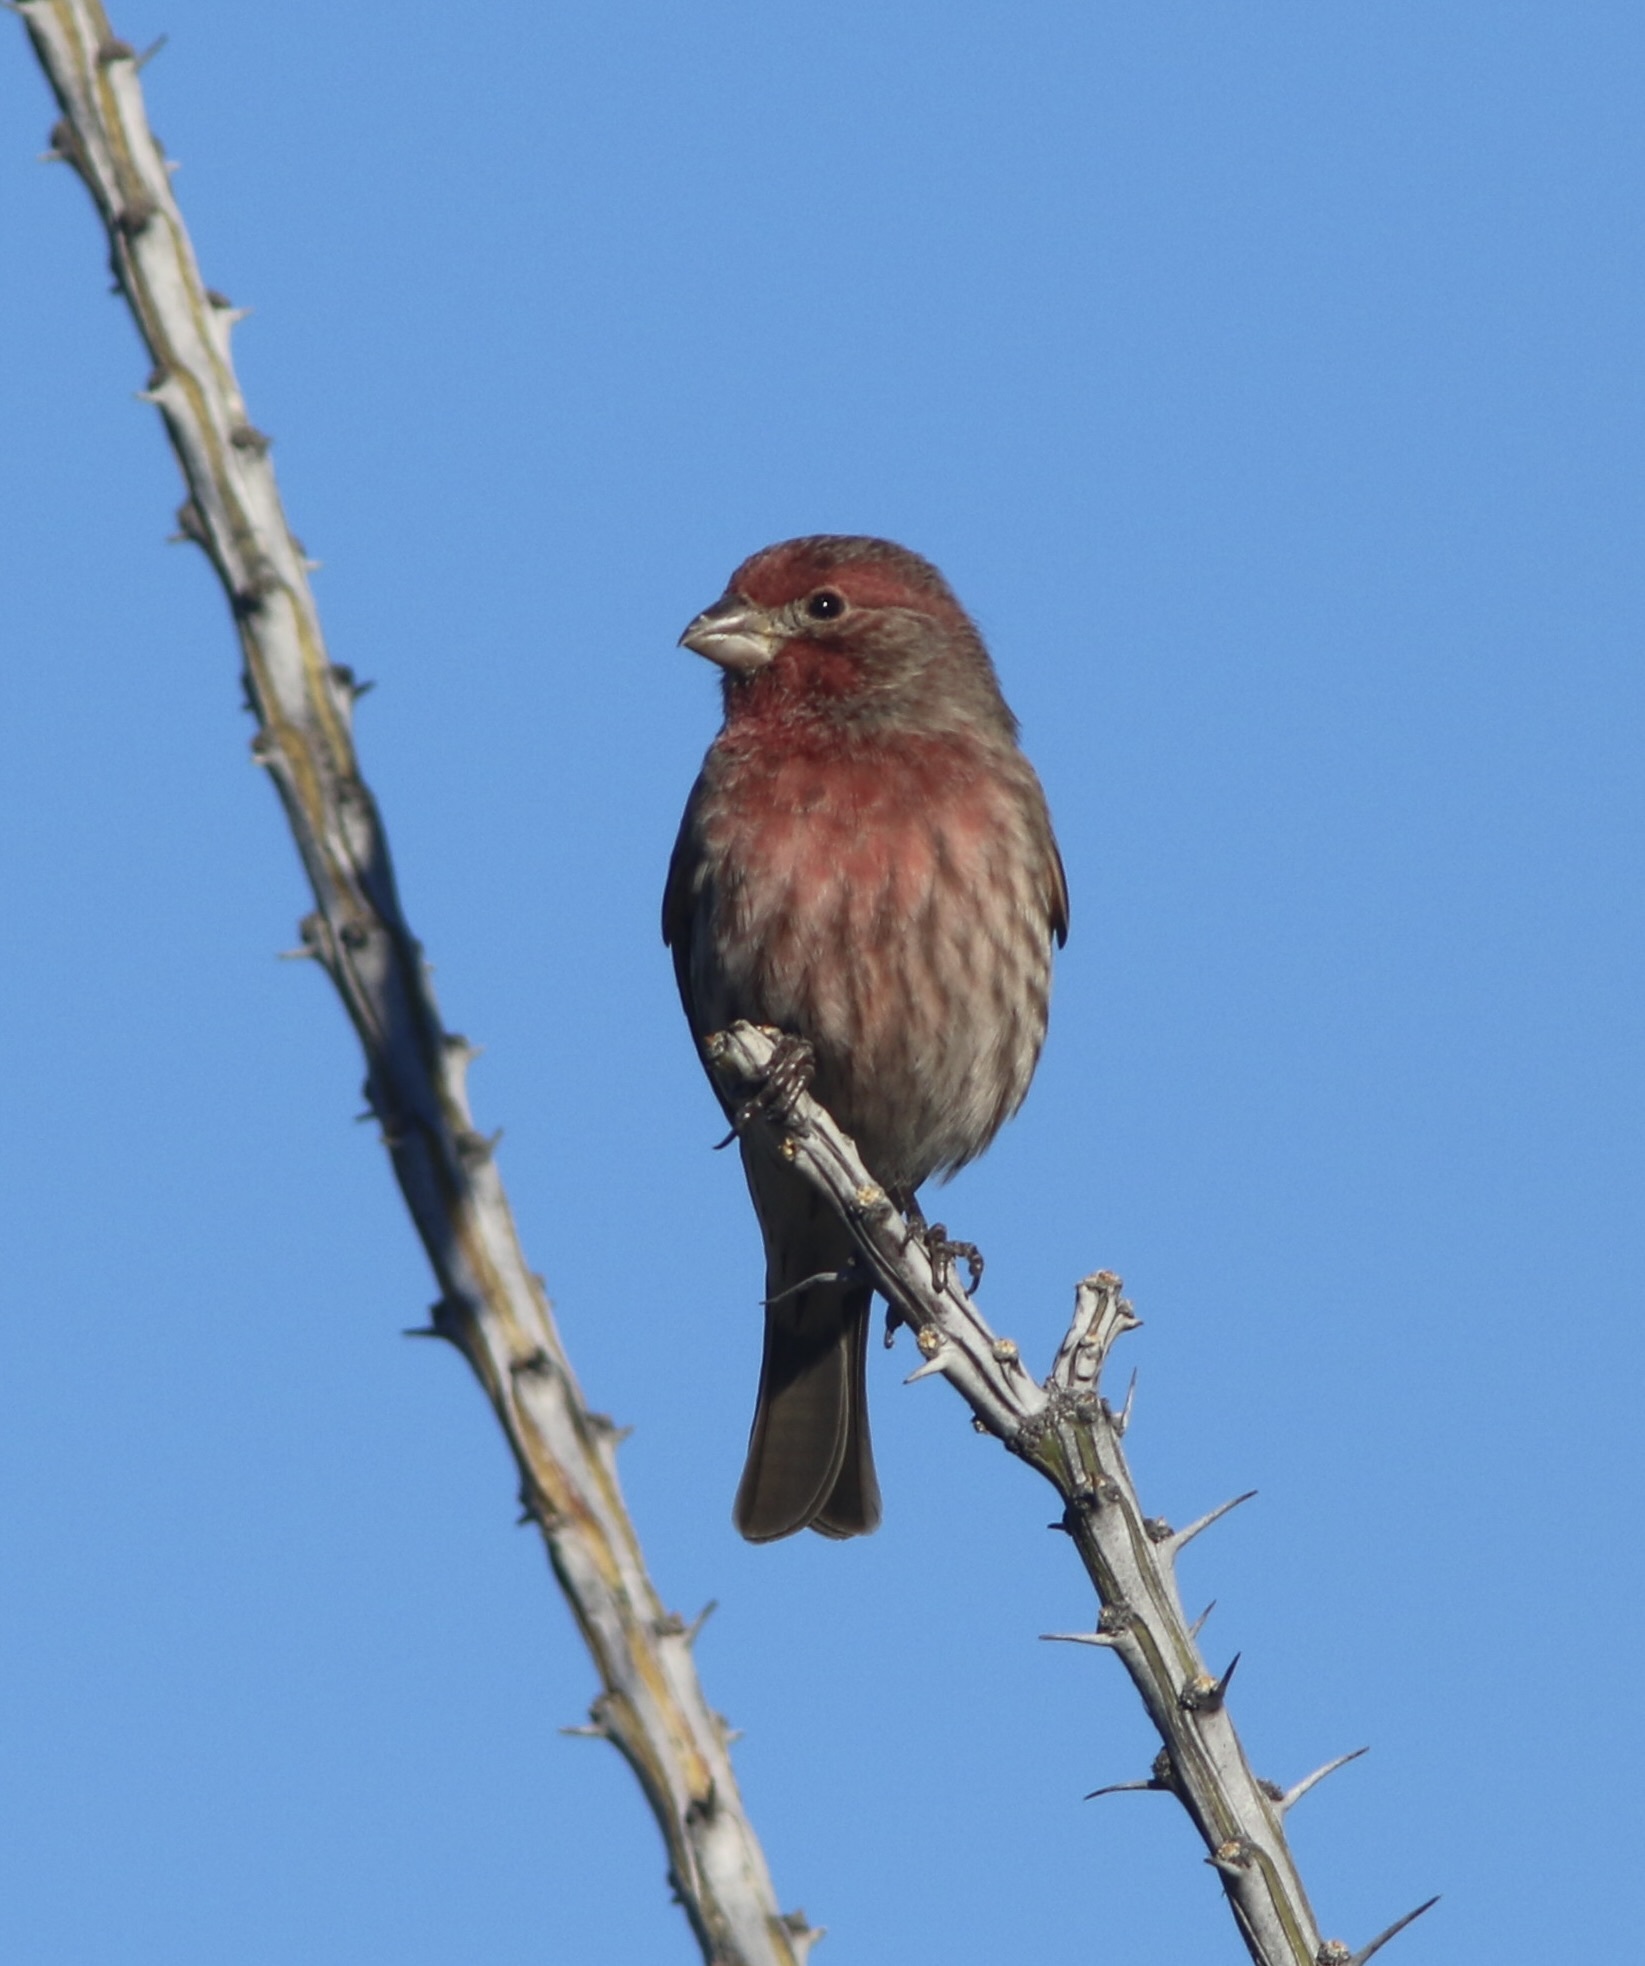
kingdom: Animalia
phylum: Chordata
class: Aves
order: Passeriformes
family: Fringillidae
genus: Haemorhous
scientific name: Haemorhous mexicanus
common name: House finch
